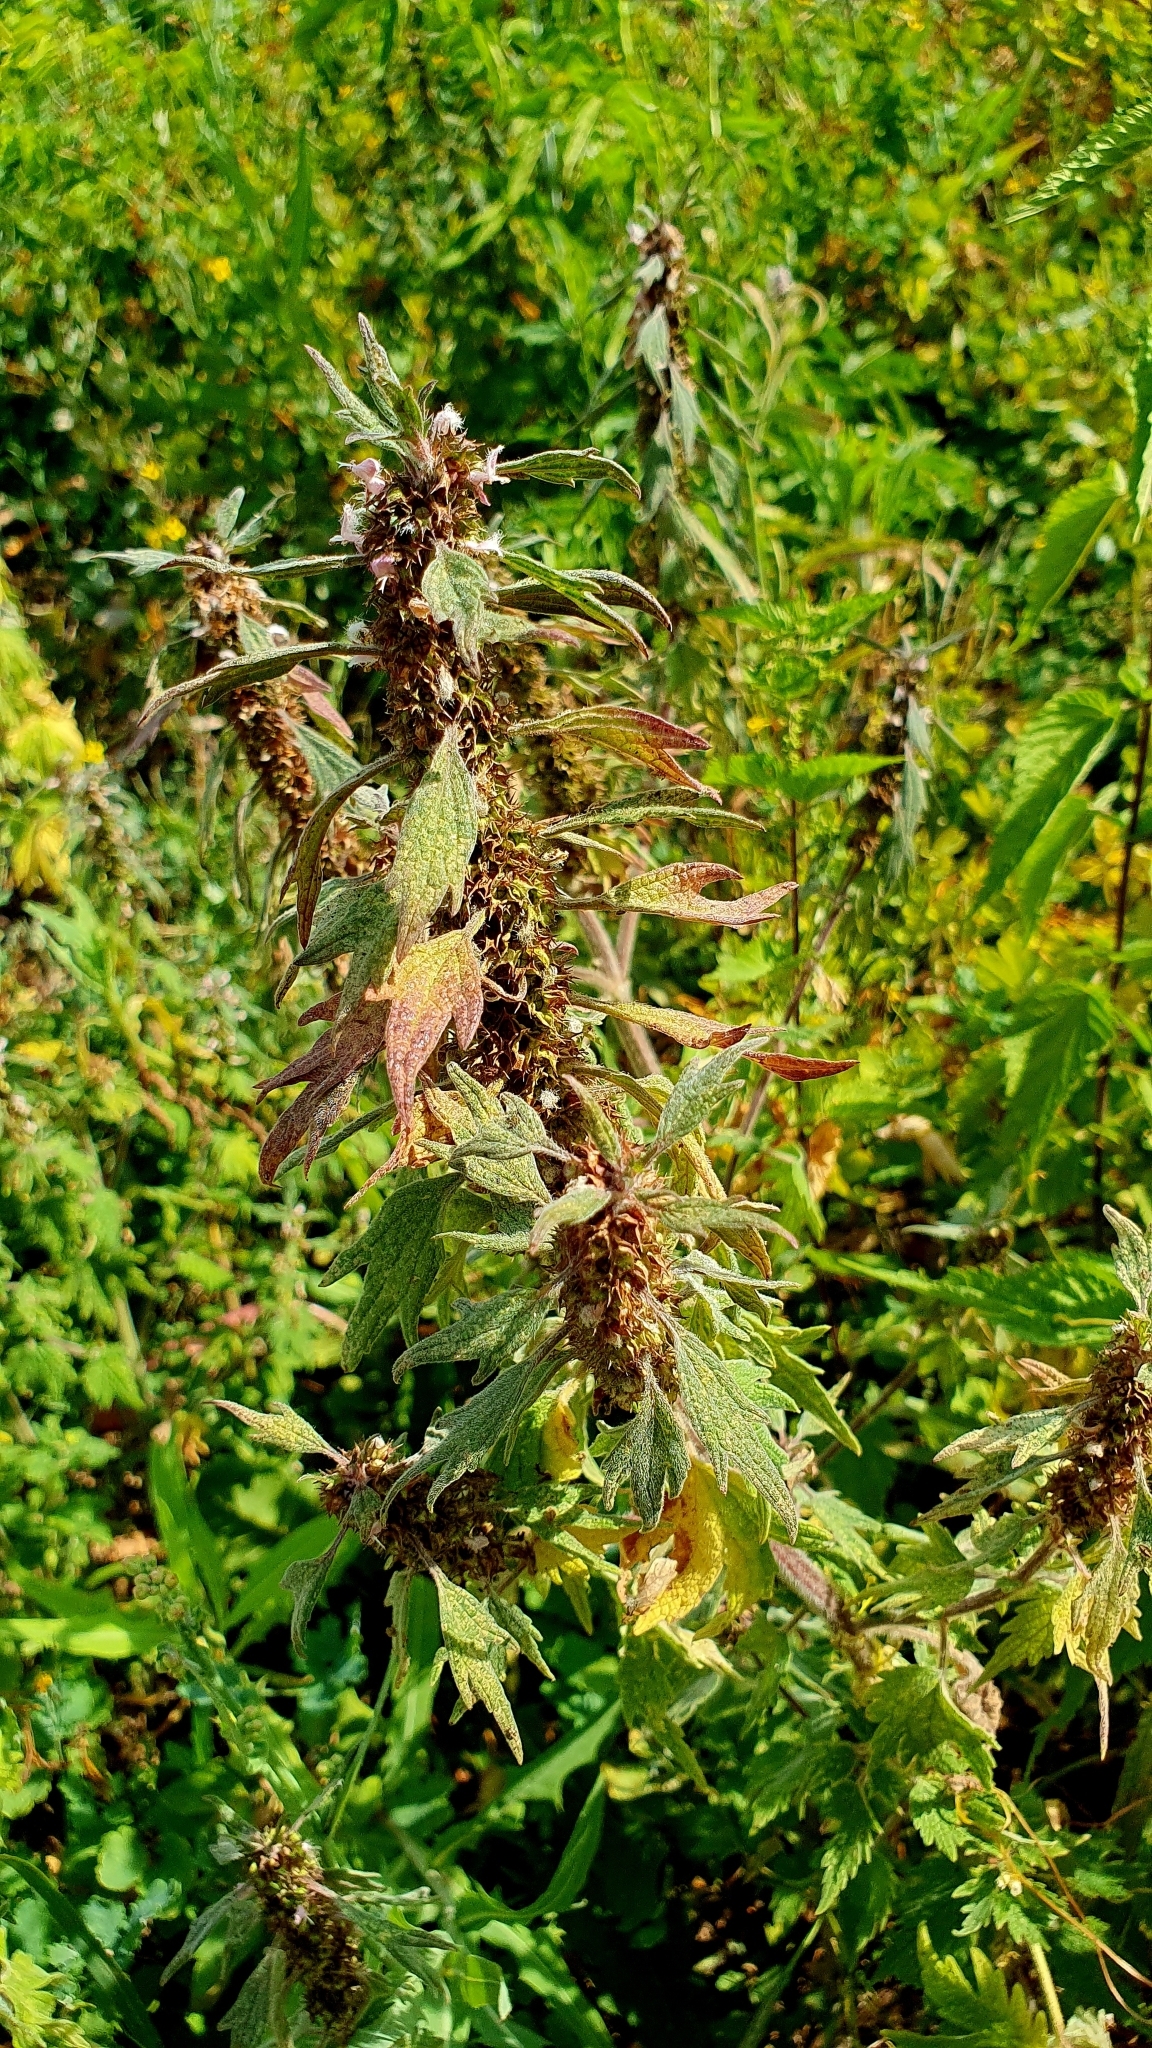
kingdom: Plantae
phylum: Tracheophyta
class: Magnoliopsida
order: Lamiales
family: Lamiaceae
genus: Leonurus
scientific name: Leonurus quinquelobatus
